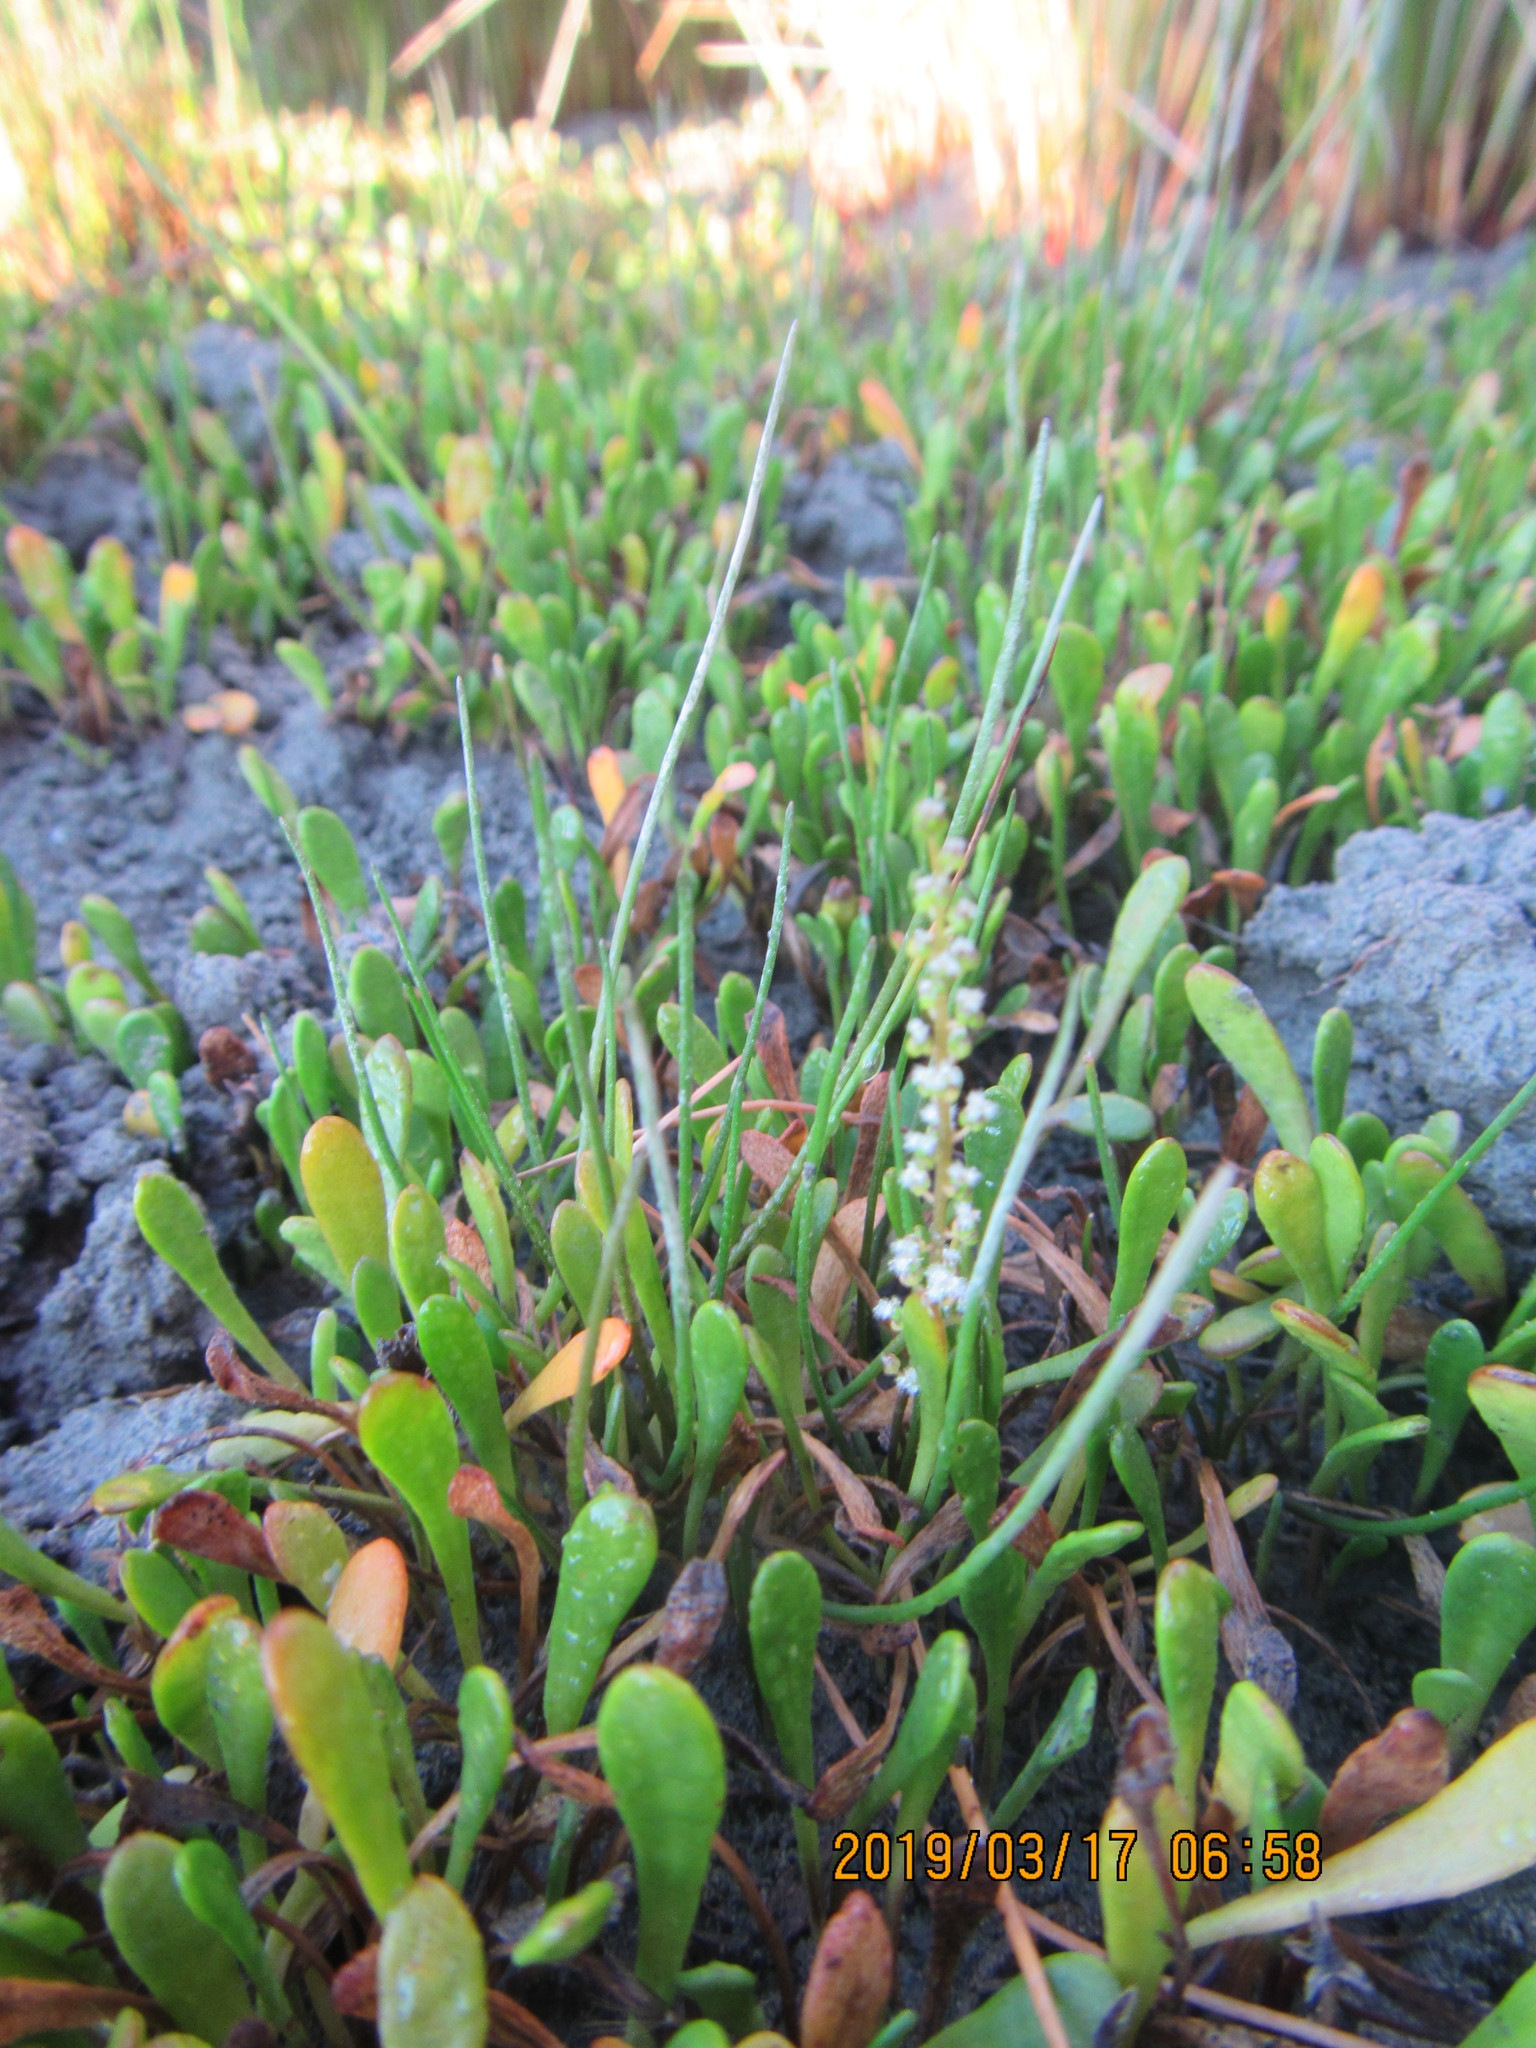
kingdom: Plantae
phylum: Tracheophyta
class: Liliopsida
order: Alismatales
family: Juncaginaceae
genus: Triglochin
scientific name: Triglochin striata
